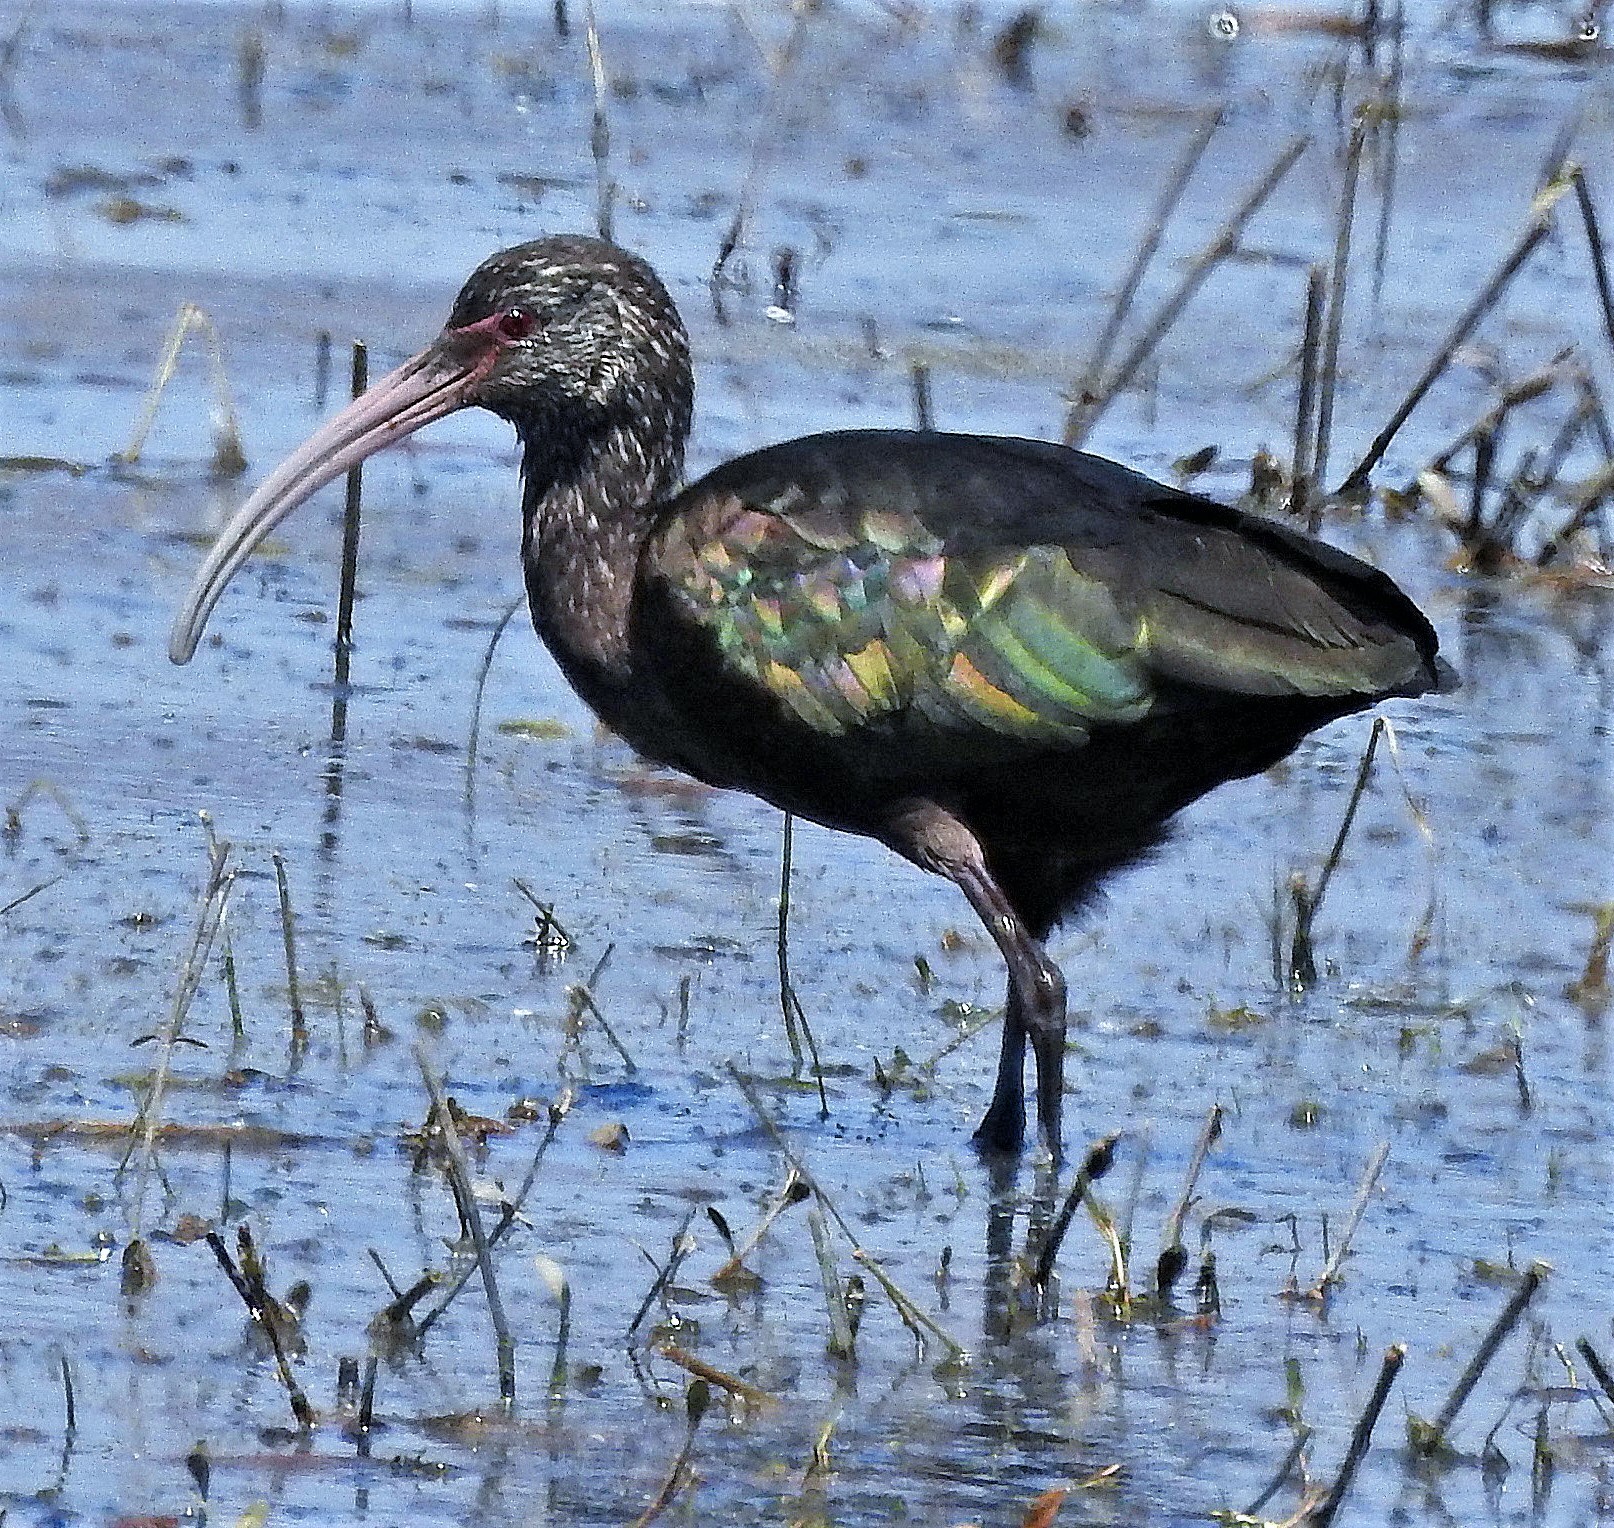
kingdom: Animalia
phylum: Chordata
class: Aves
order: Pelecaniformes
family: Threskiornithidae
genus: Plegadis
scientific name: Plegadis chihi
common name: White-faced ibis
